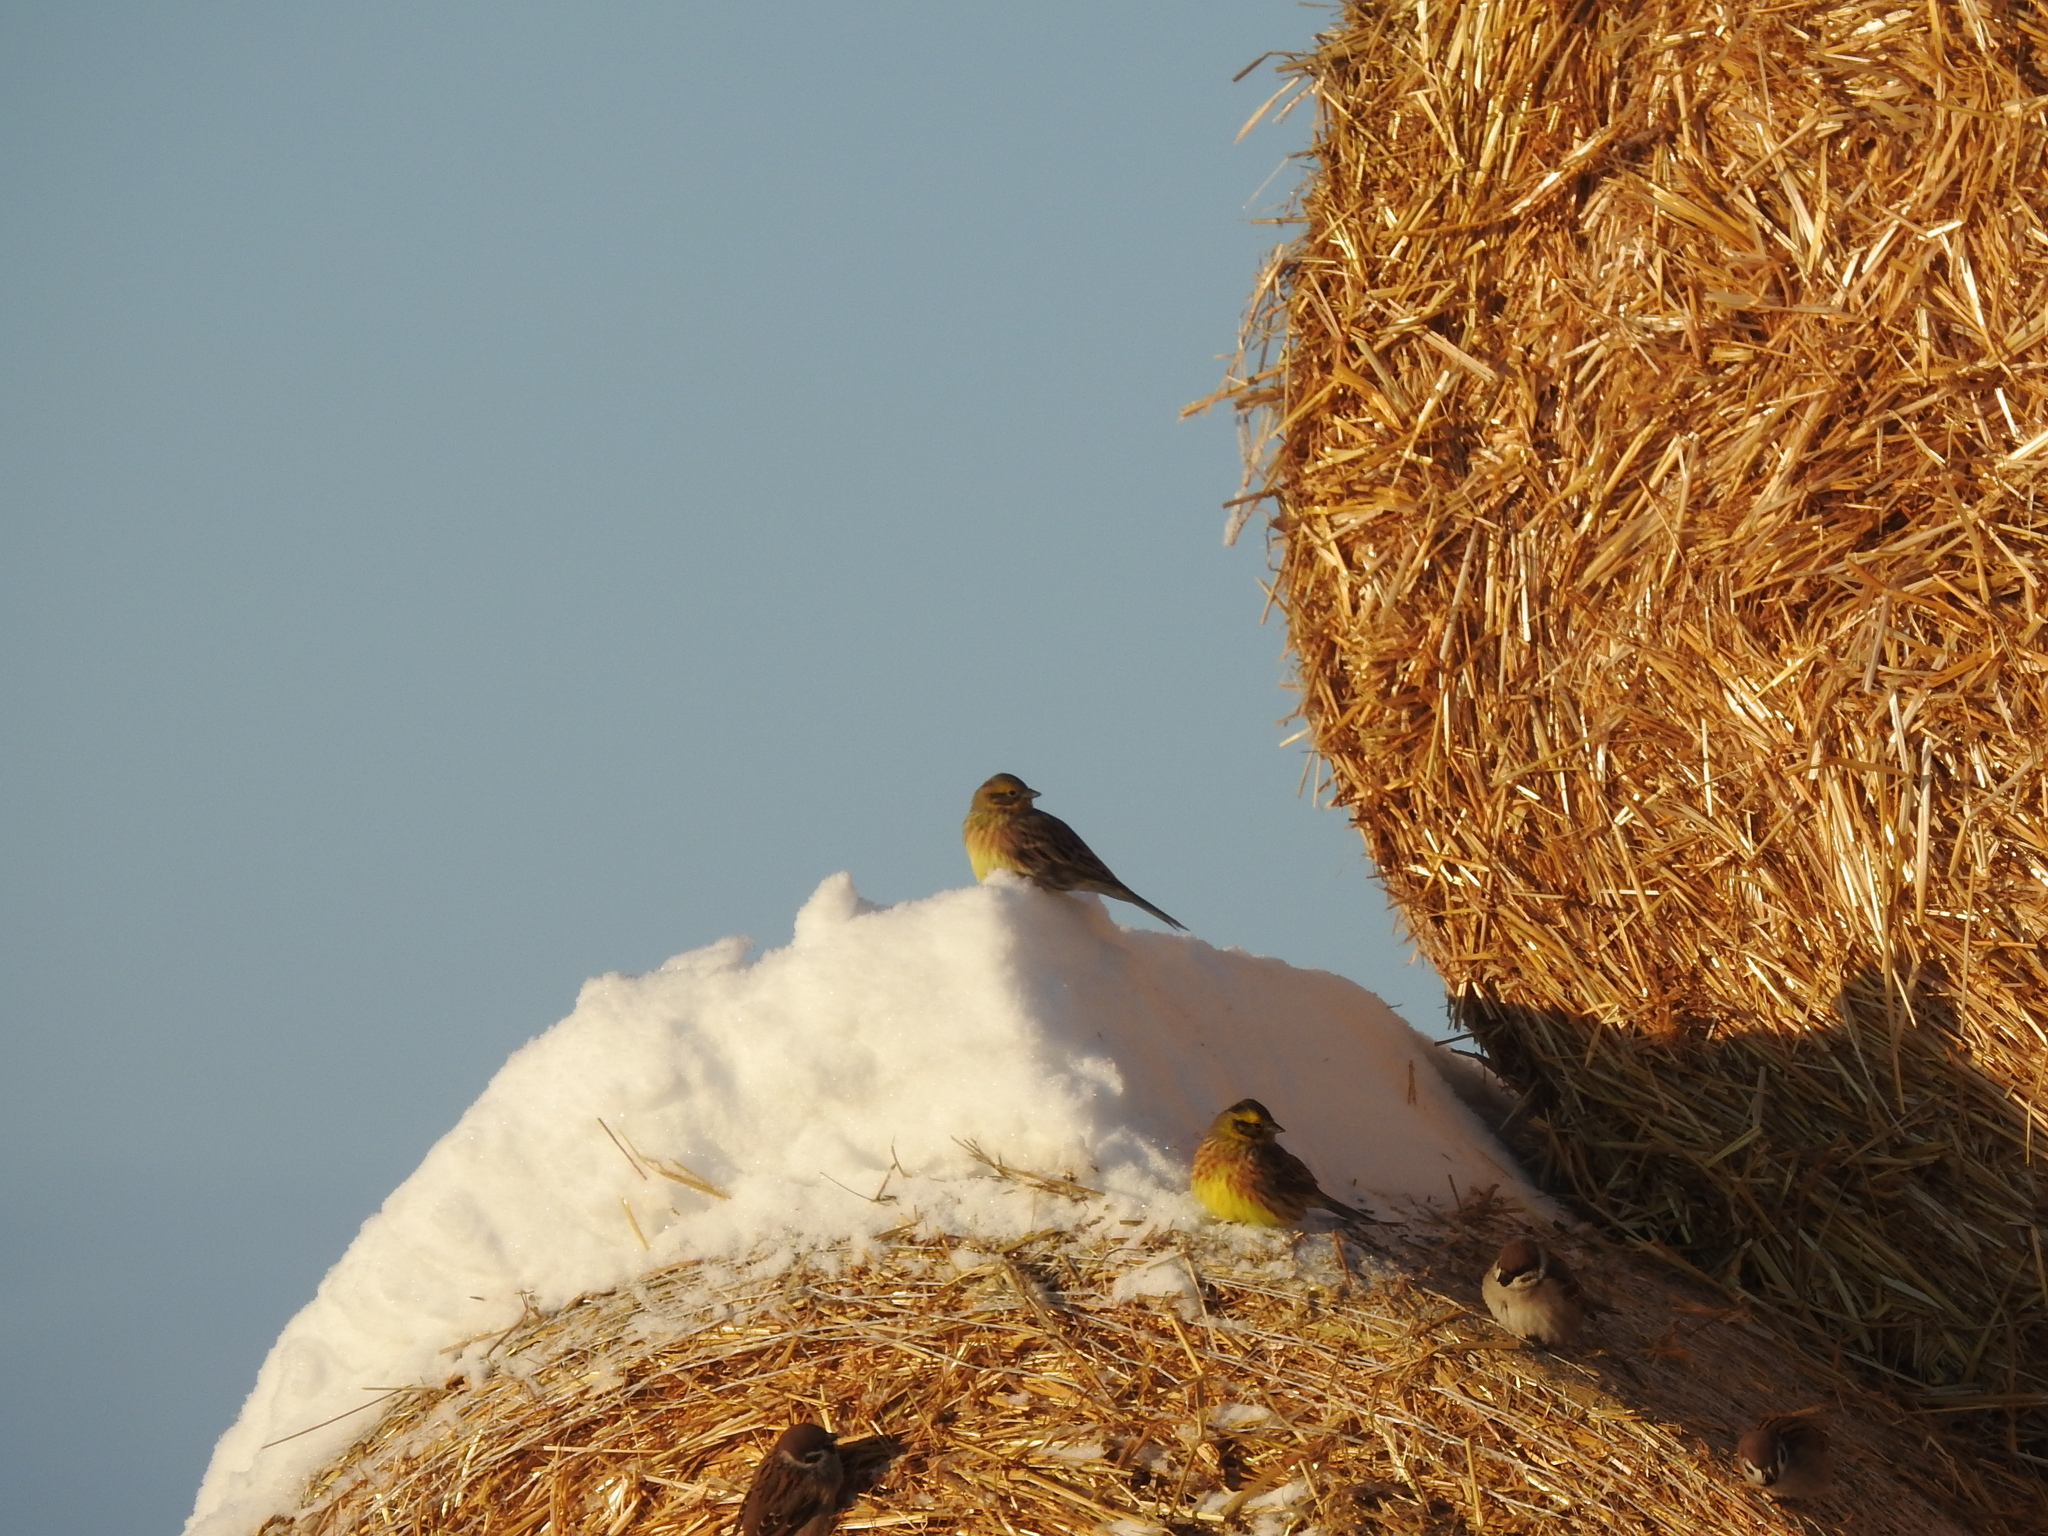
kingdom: Animalia
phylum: Chordata
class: Aves
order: Passeriformes
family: Emberizidae
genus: Emberiza
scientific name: Emberiza citrinella
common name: Yellowhammer
